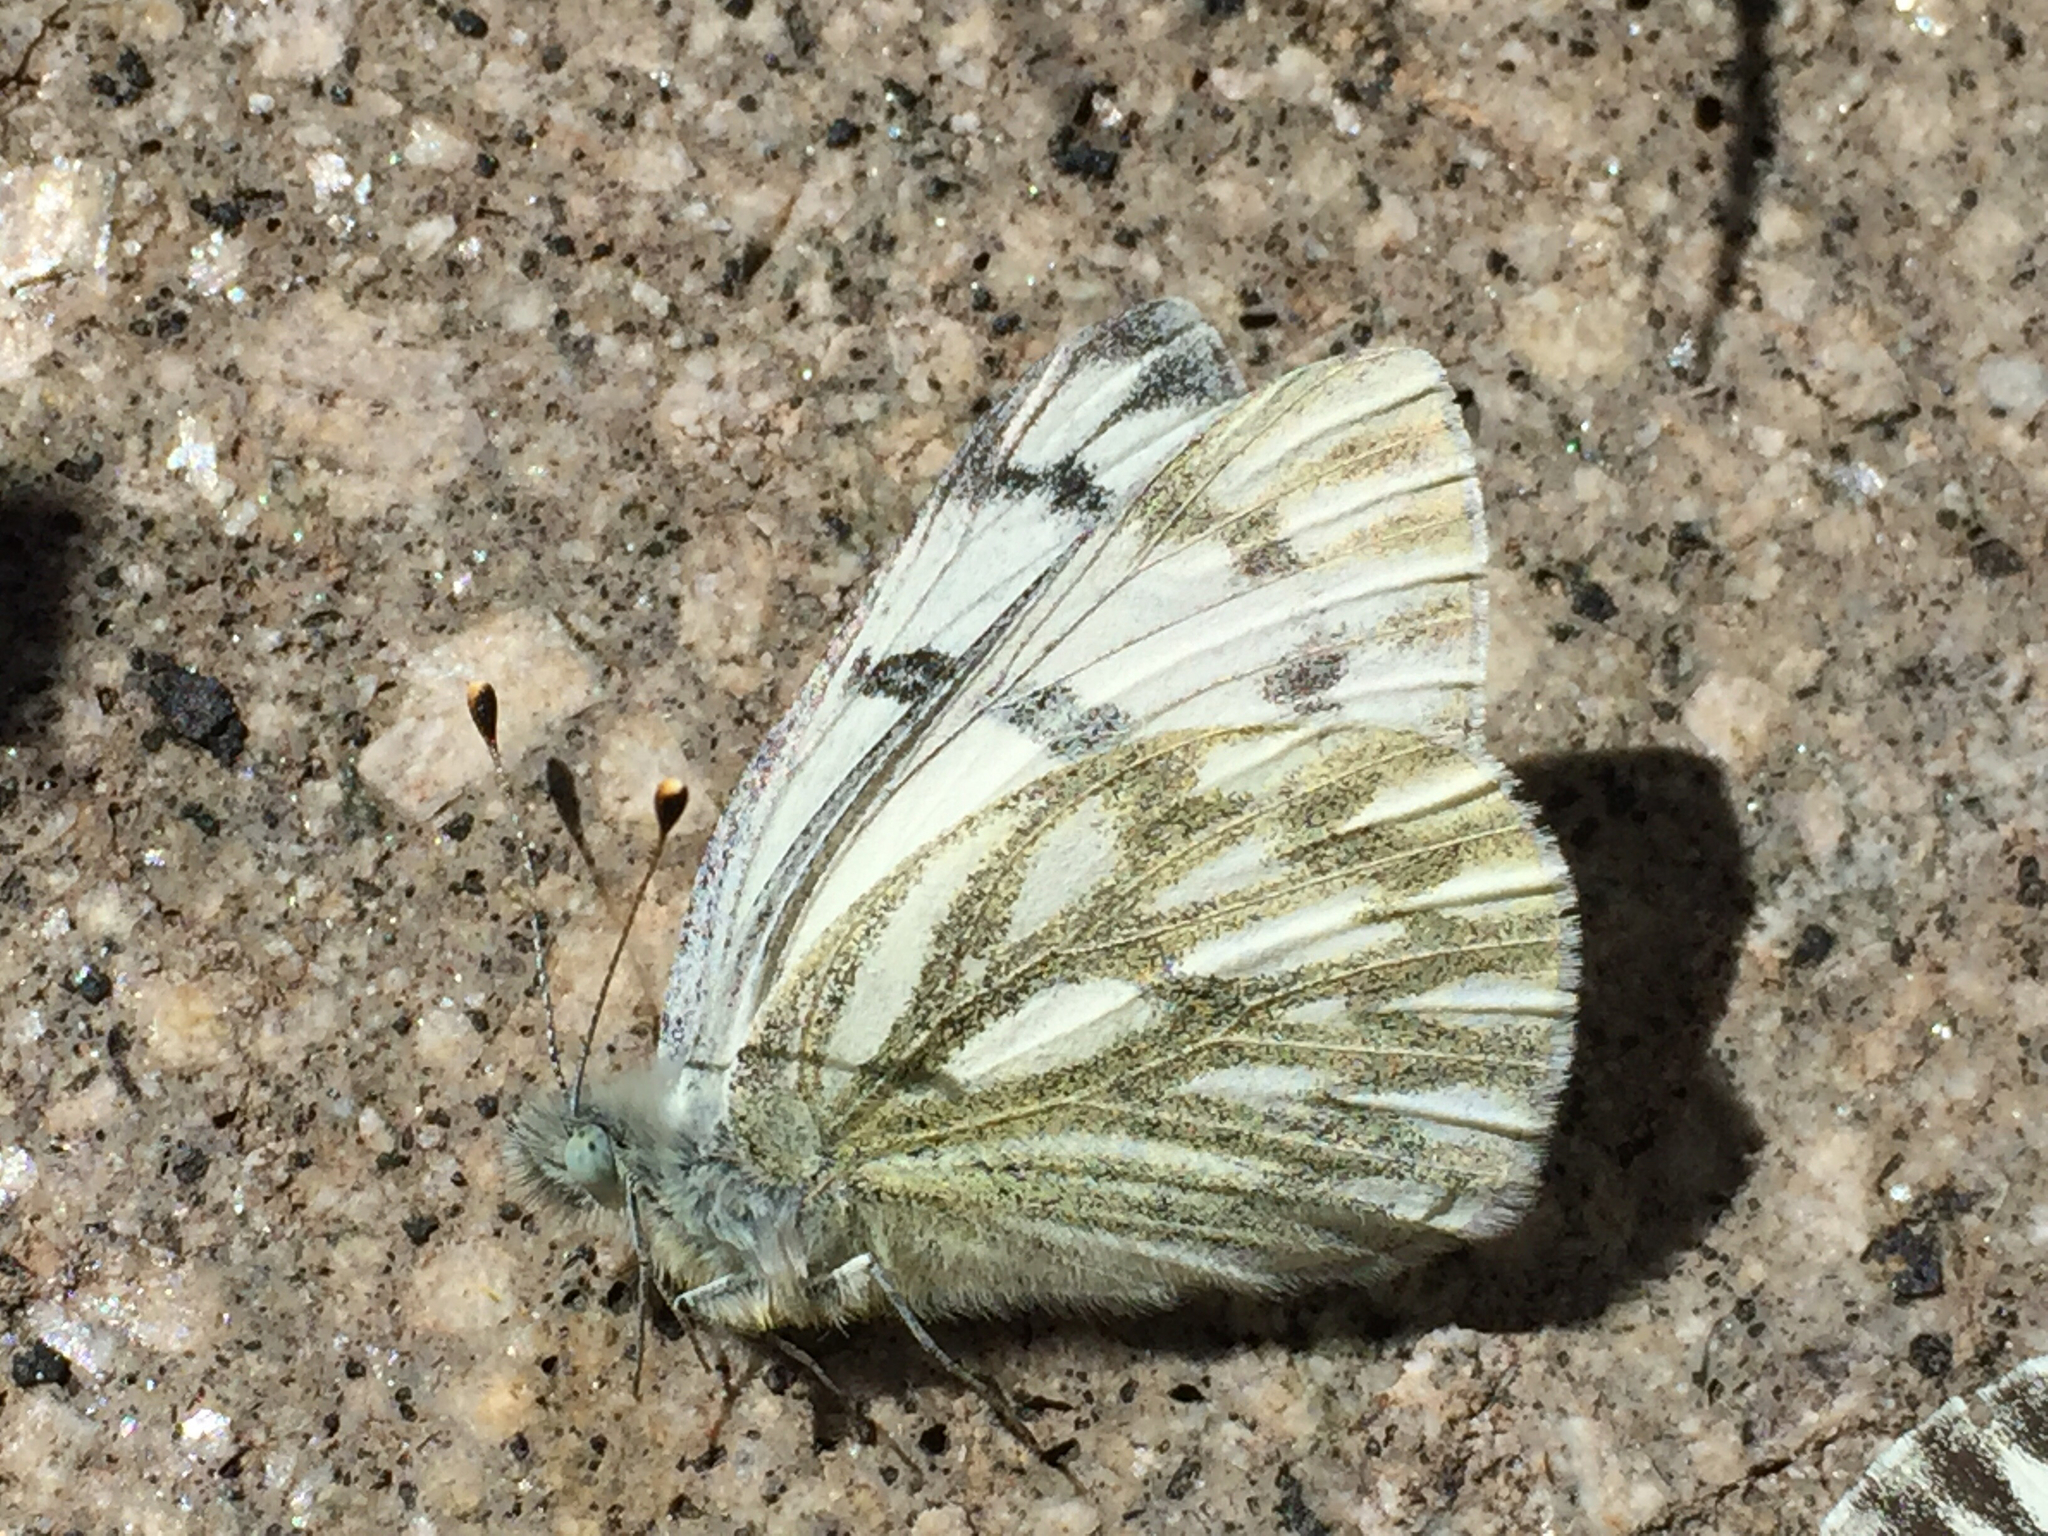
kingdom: Animalia
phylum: Arthropoda
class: Insecta
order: Lepidoptera
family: Pieridae
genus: Pontia
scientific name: Pontia occidentalis
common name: Western white
